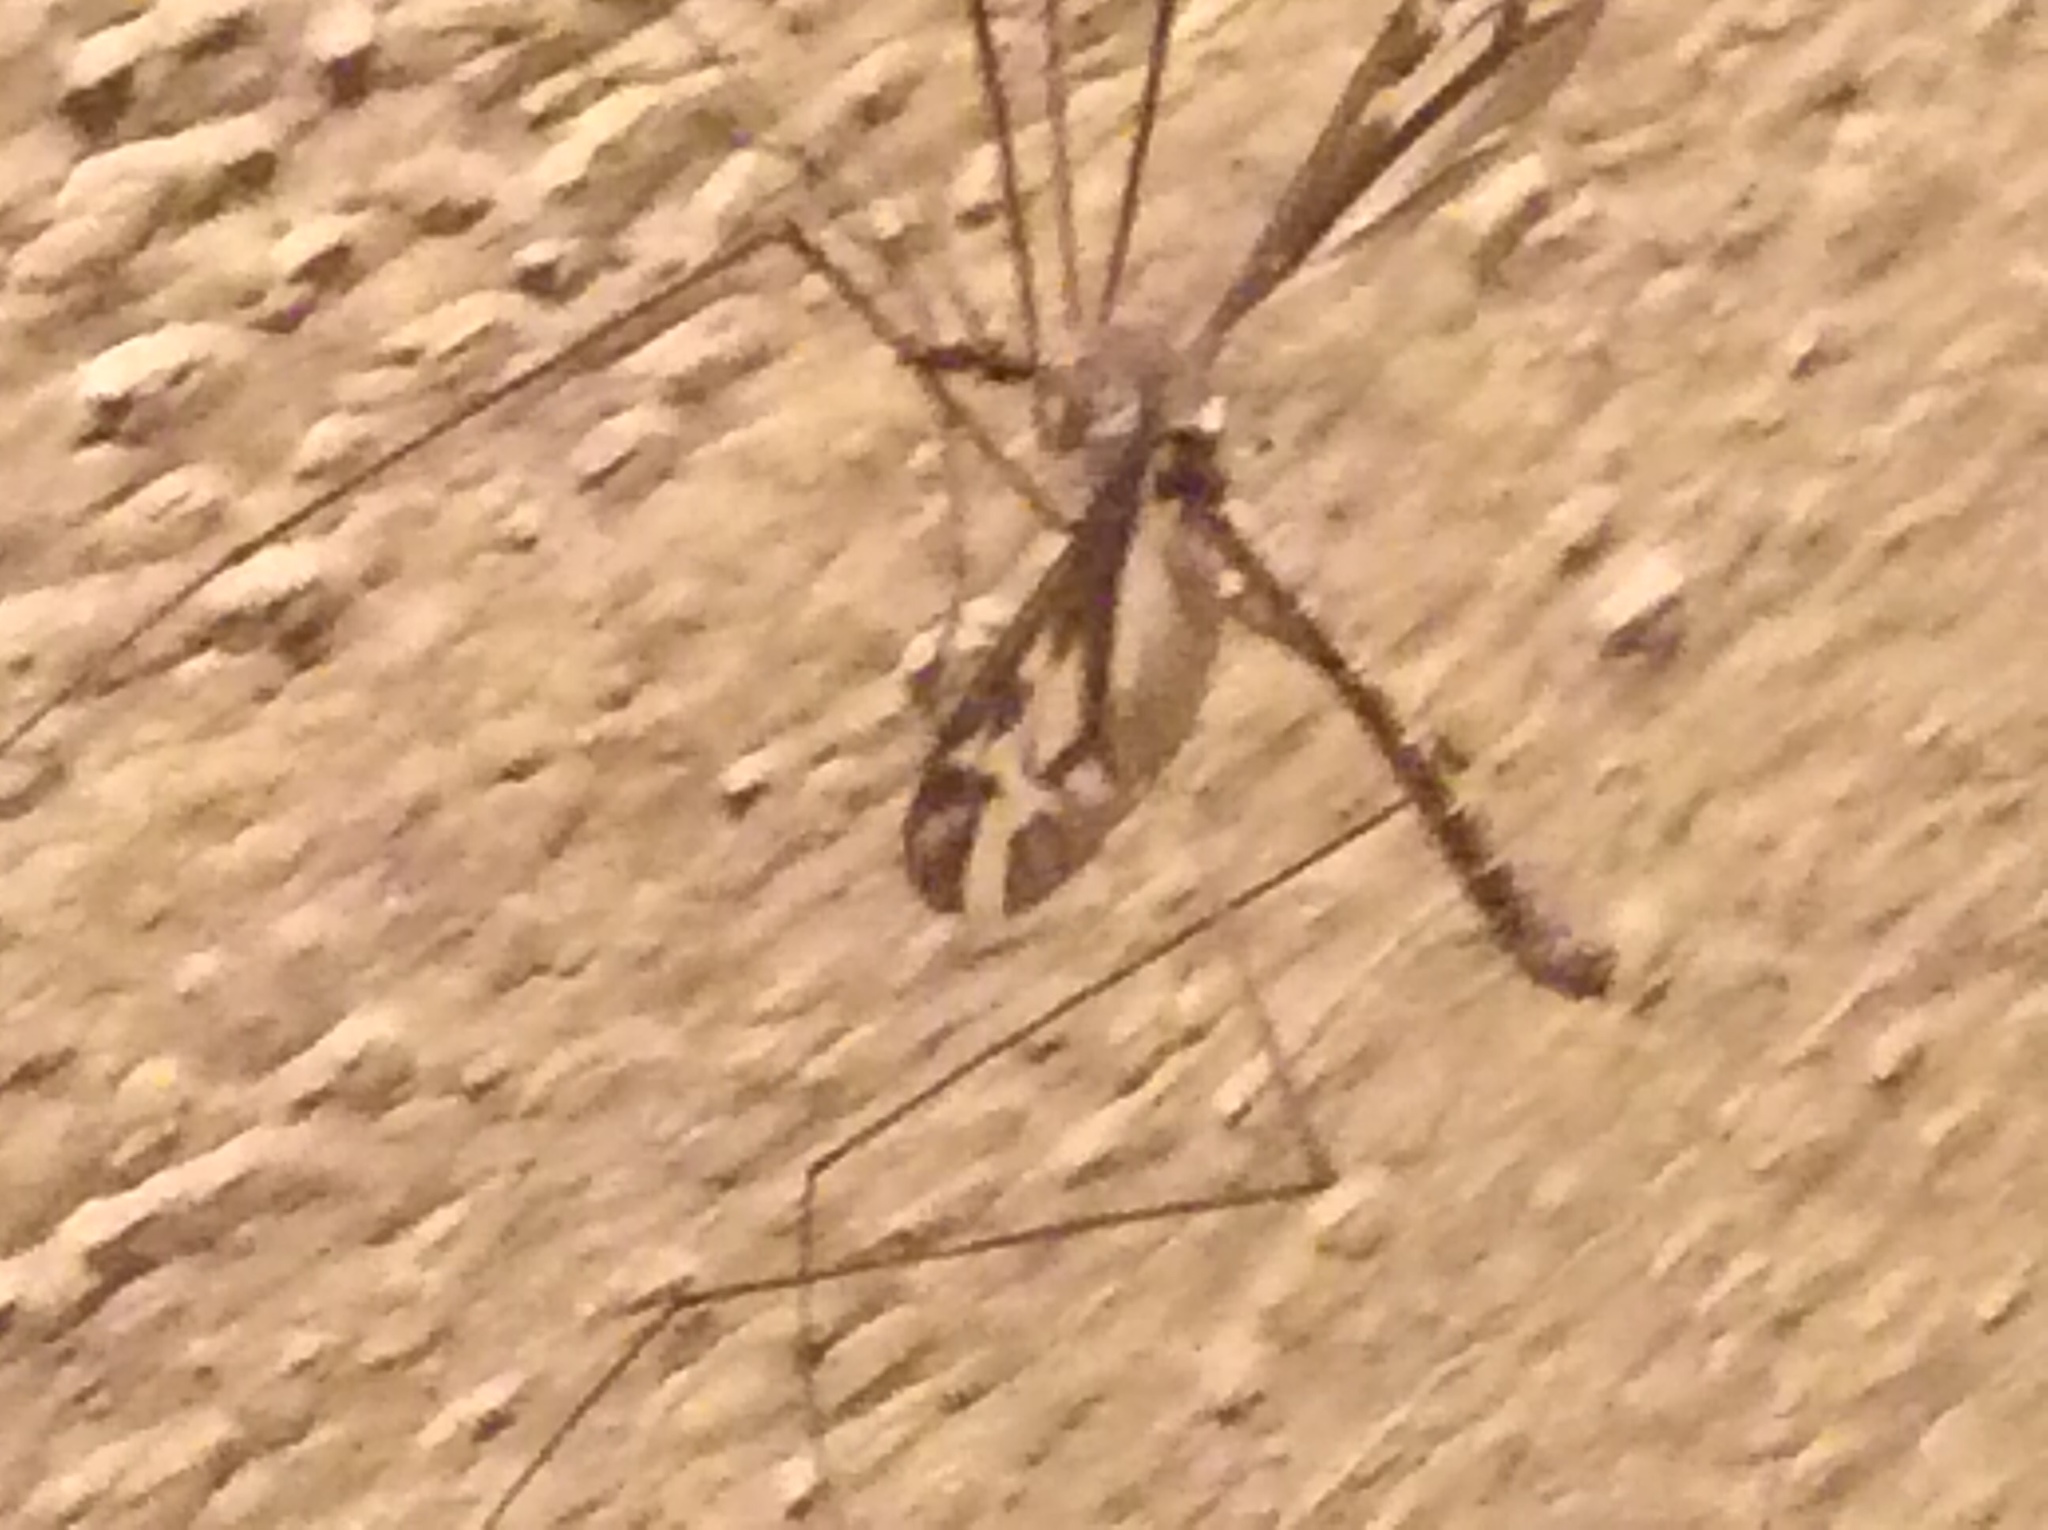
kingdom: Animalia
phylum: Arthropoda
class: Insecta
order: Diptera
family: Tipulidae
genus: Tipula
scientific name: Tipula furca
